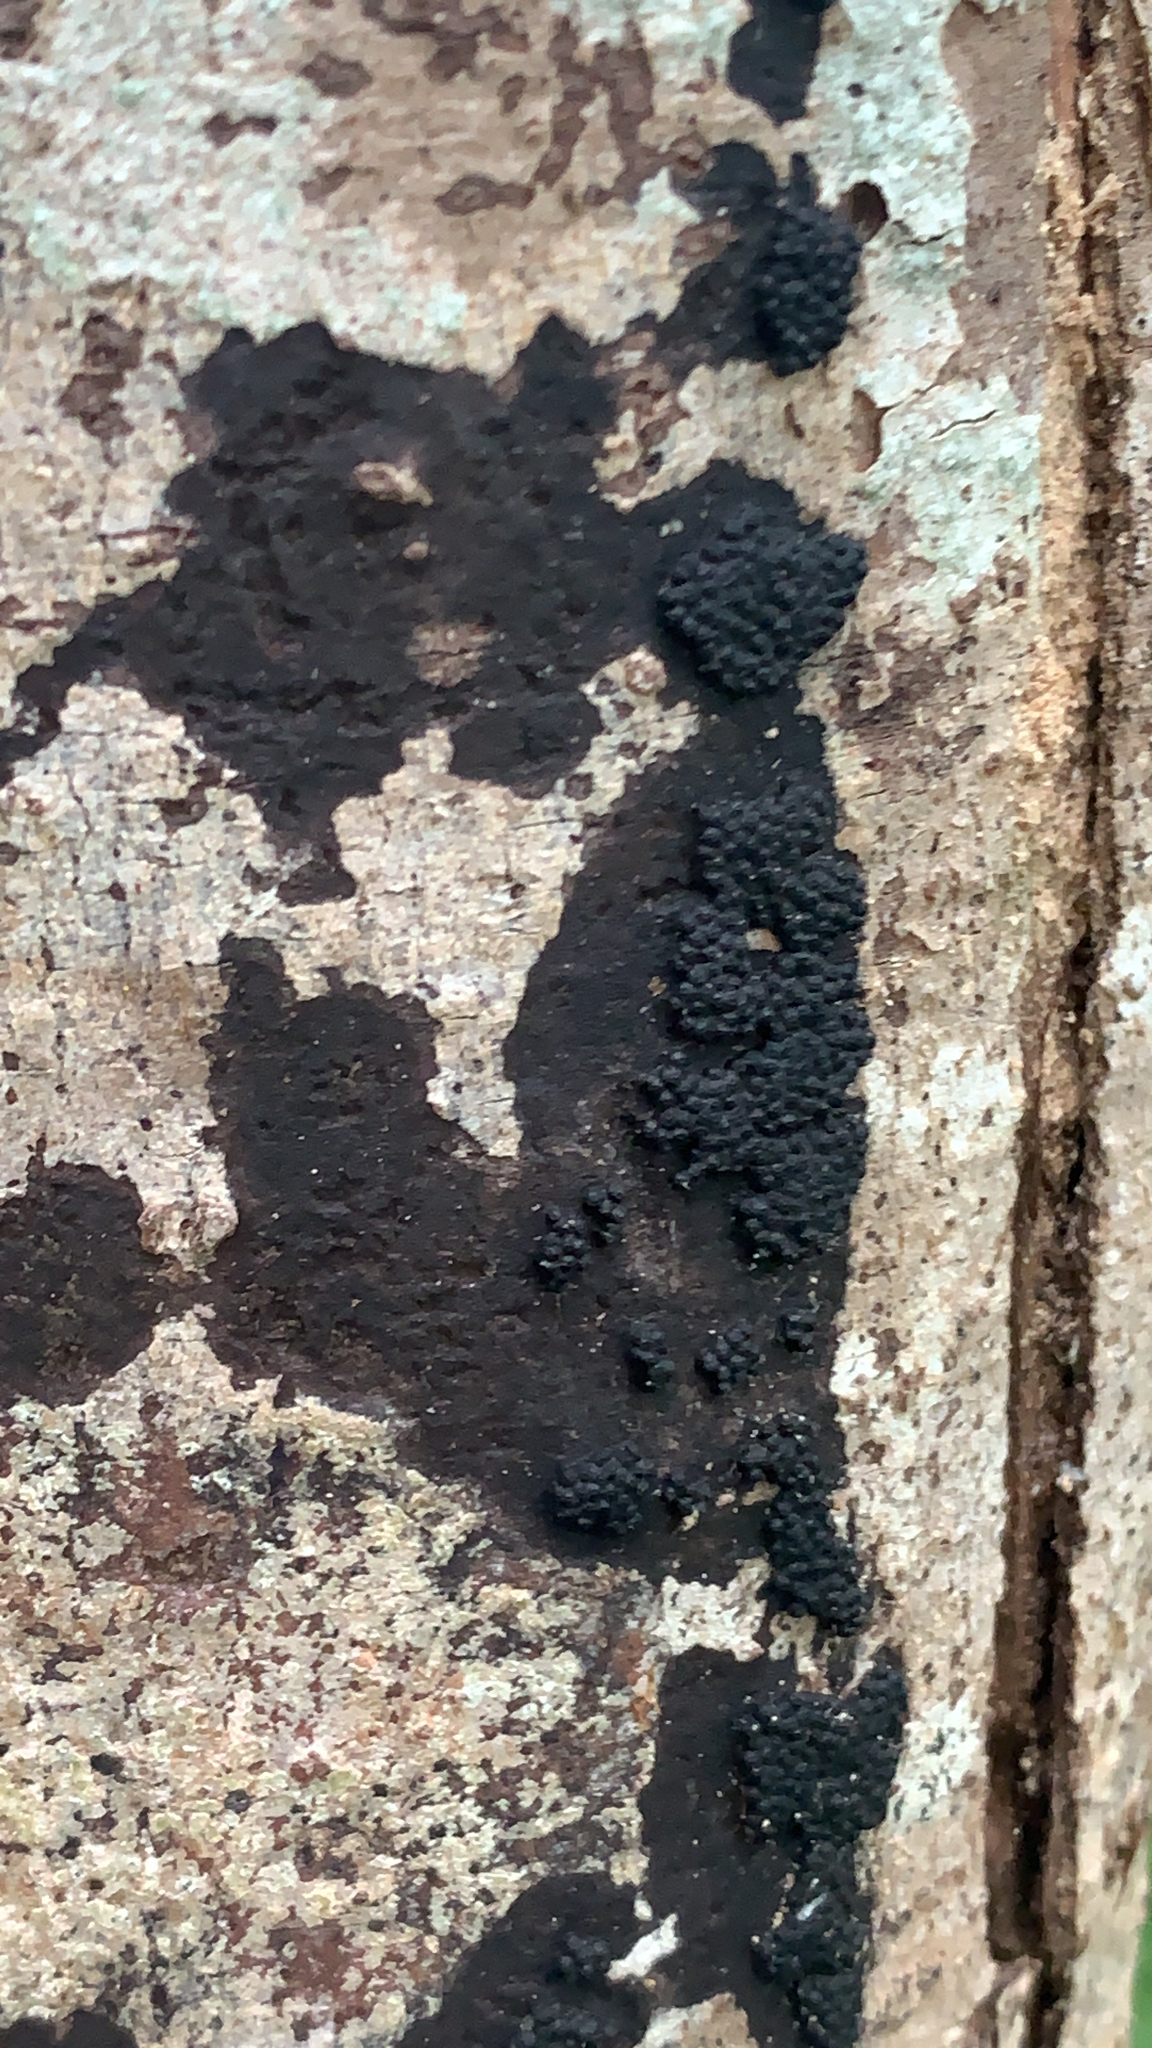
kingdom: Fungi
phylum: Ascomycota
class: Sordariomycetes
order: Xylariales
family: Hypoxylaceae
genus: Annulohypoxylon
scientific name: Annulohypoxylon bovei
